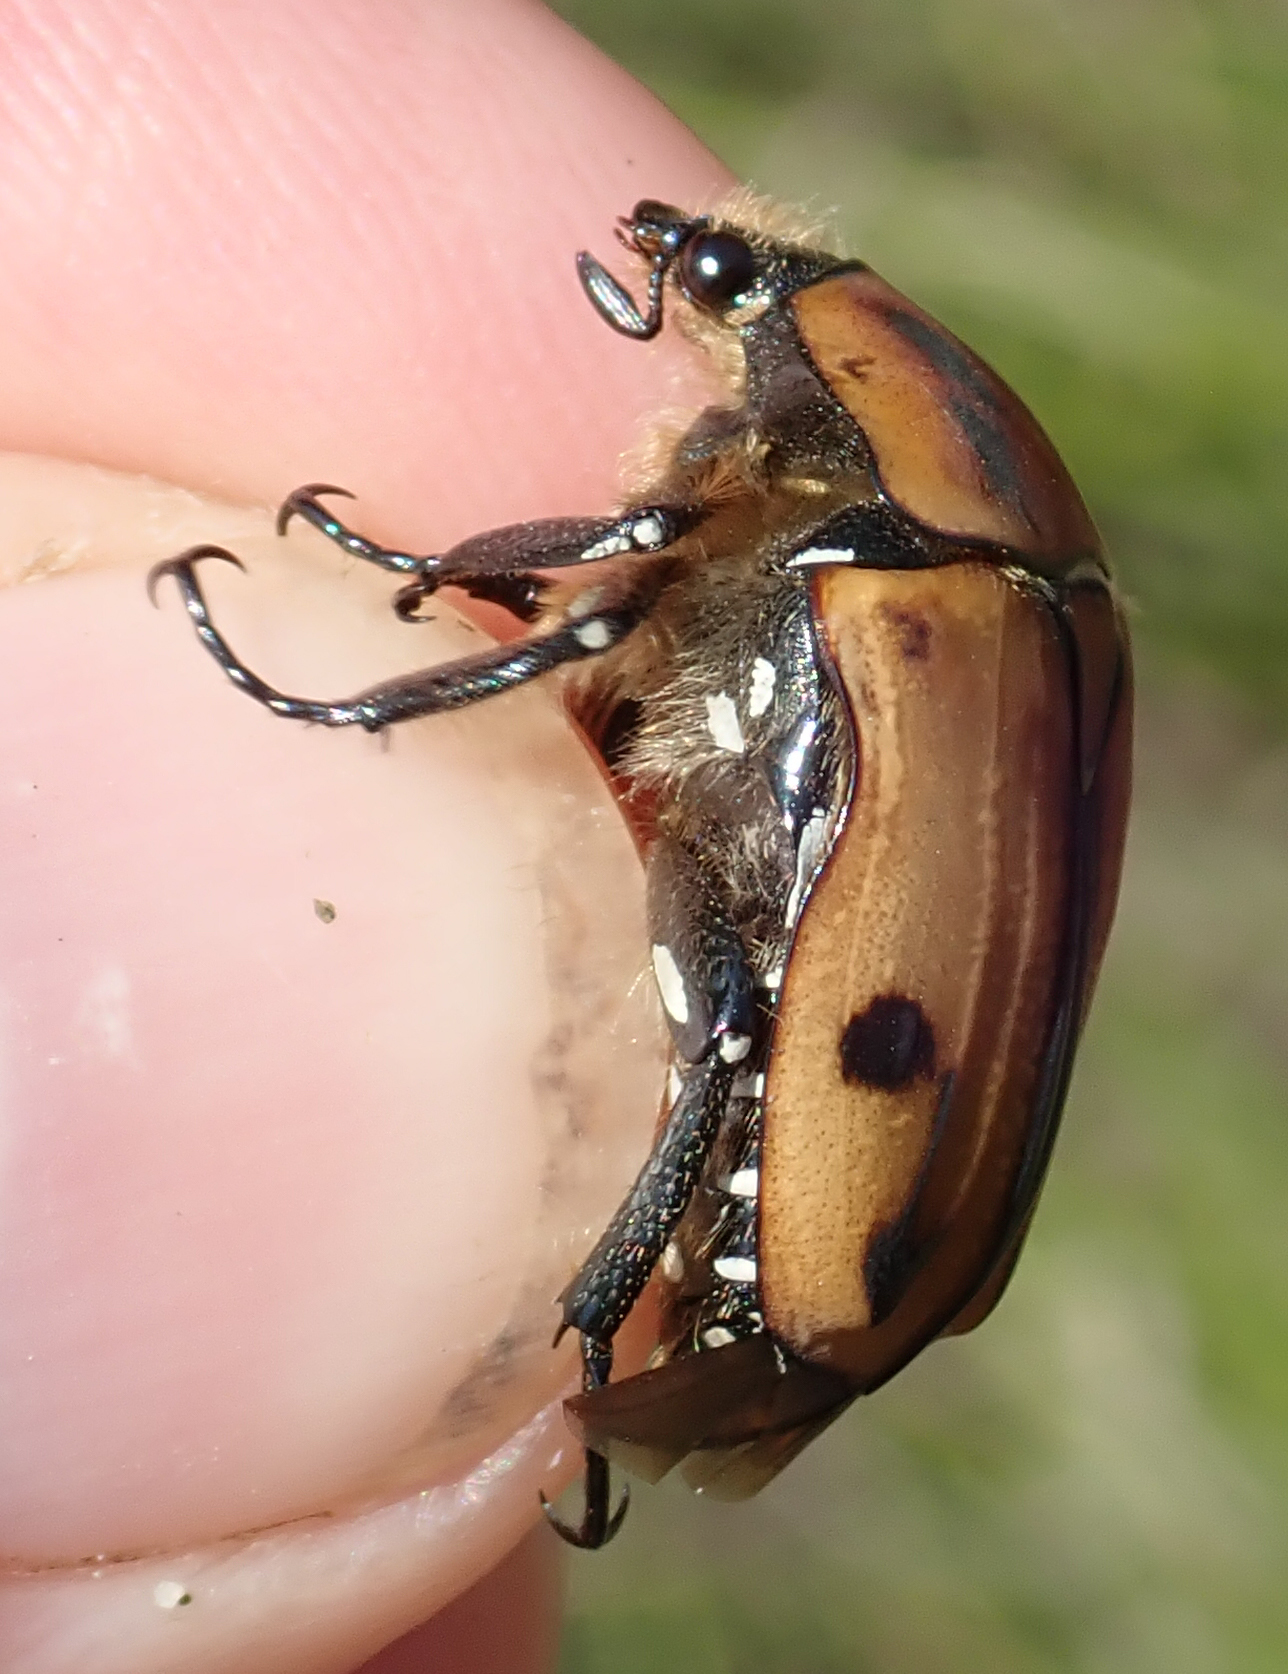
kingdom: Animalia
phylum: Arthropoda
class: Insecta
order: Coleoptera
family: Scarabaeidae
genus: Atrichiana
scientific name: Atrichiana placida
